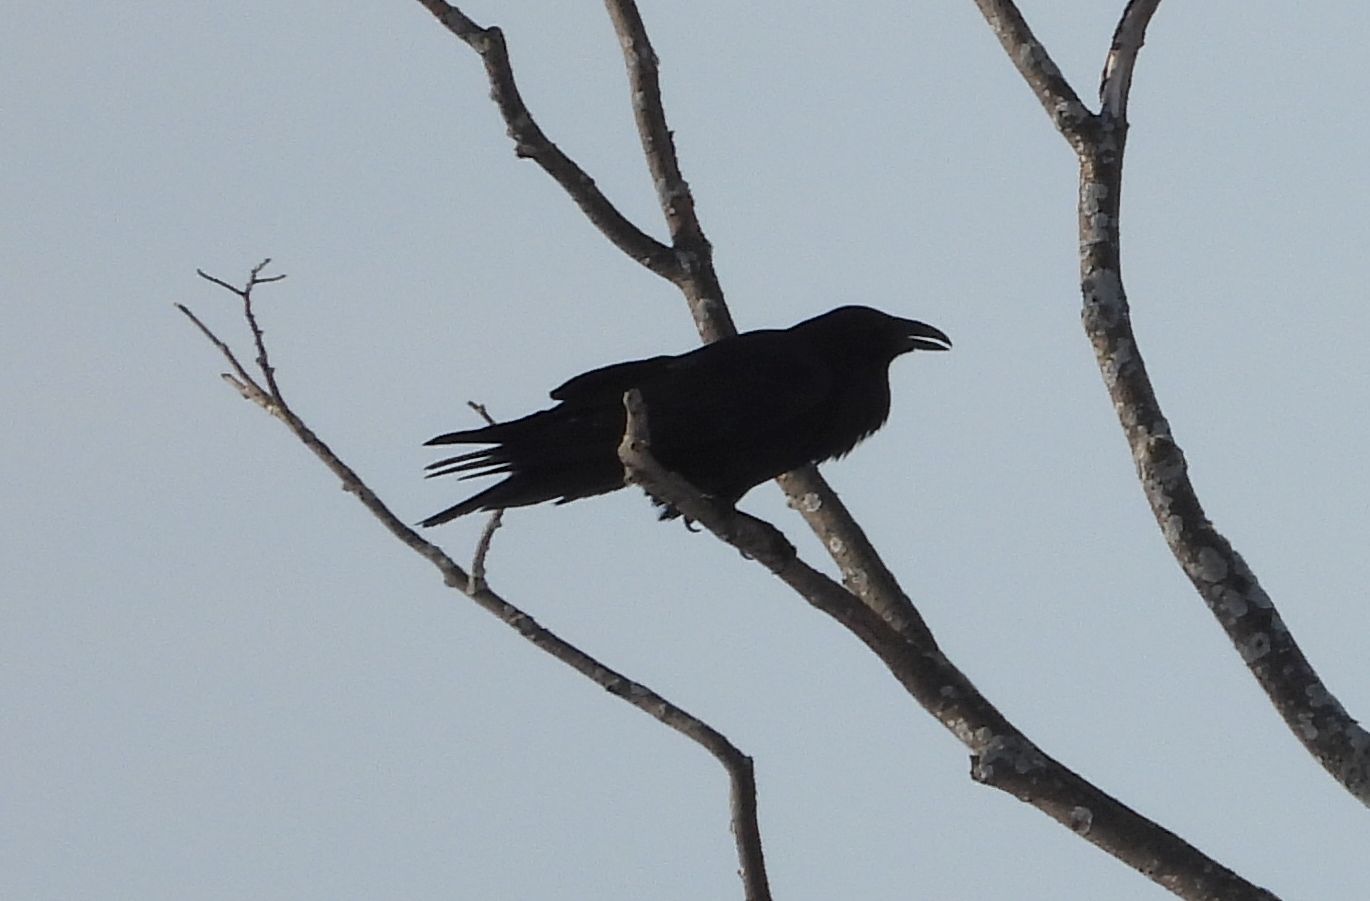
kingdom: Animalia
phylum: Chordata
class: Aves
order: Passeriformes
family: Corvidae
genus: Corvus
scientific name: Corvus corax
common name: Common raven
